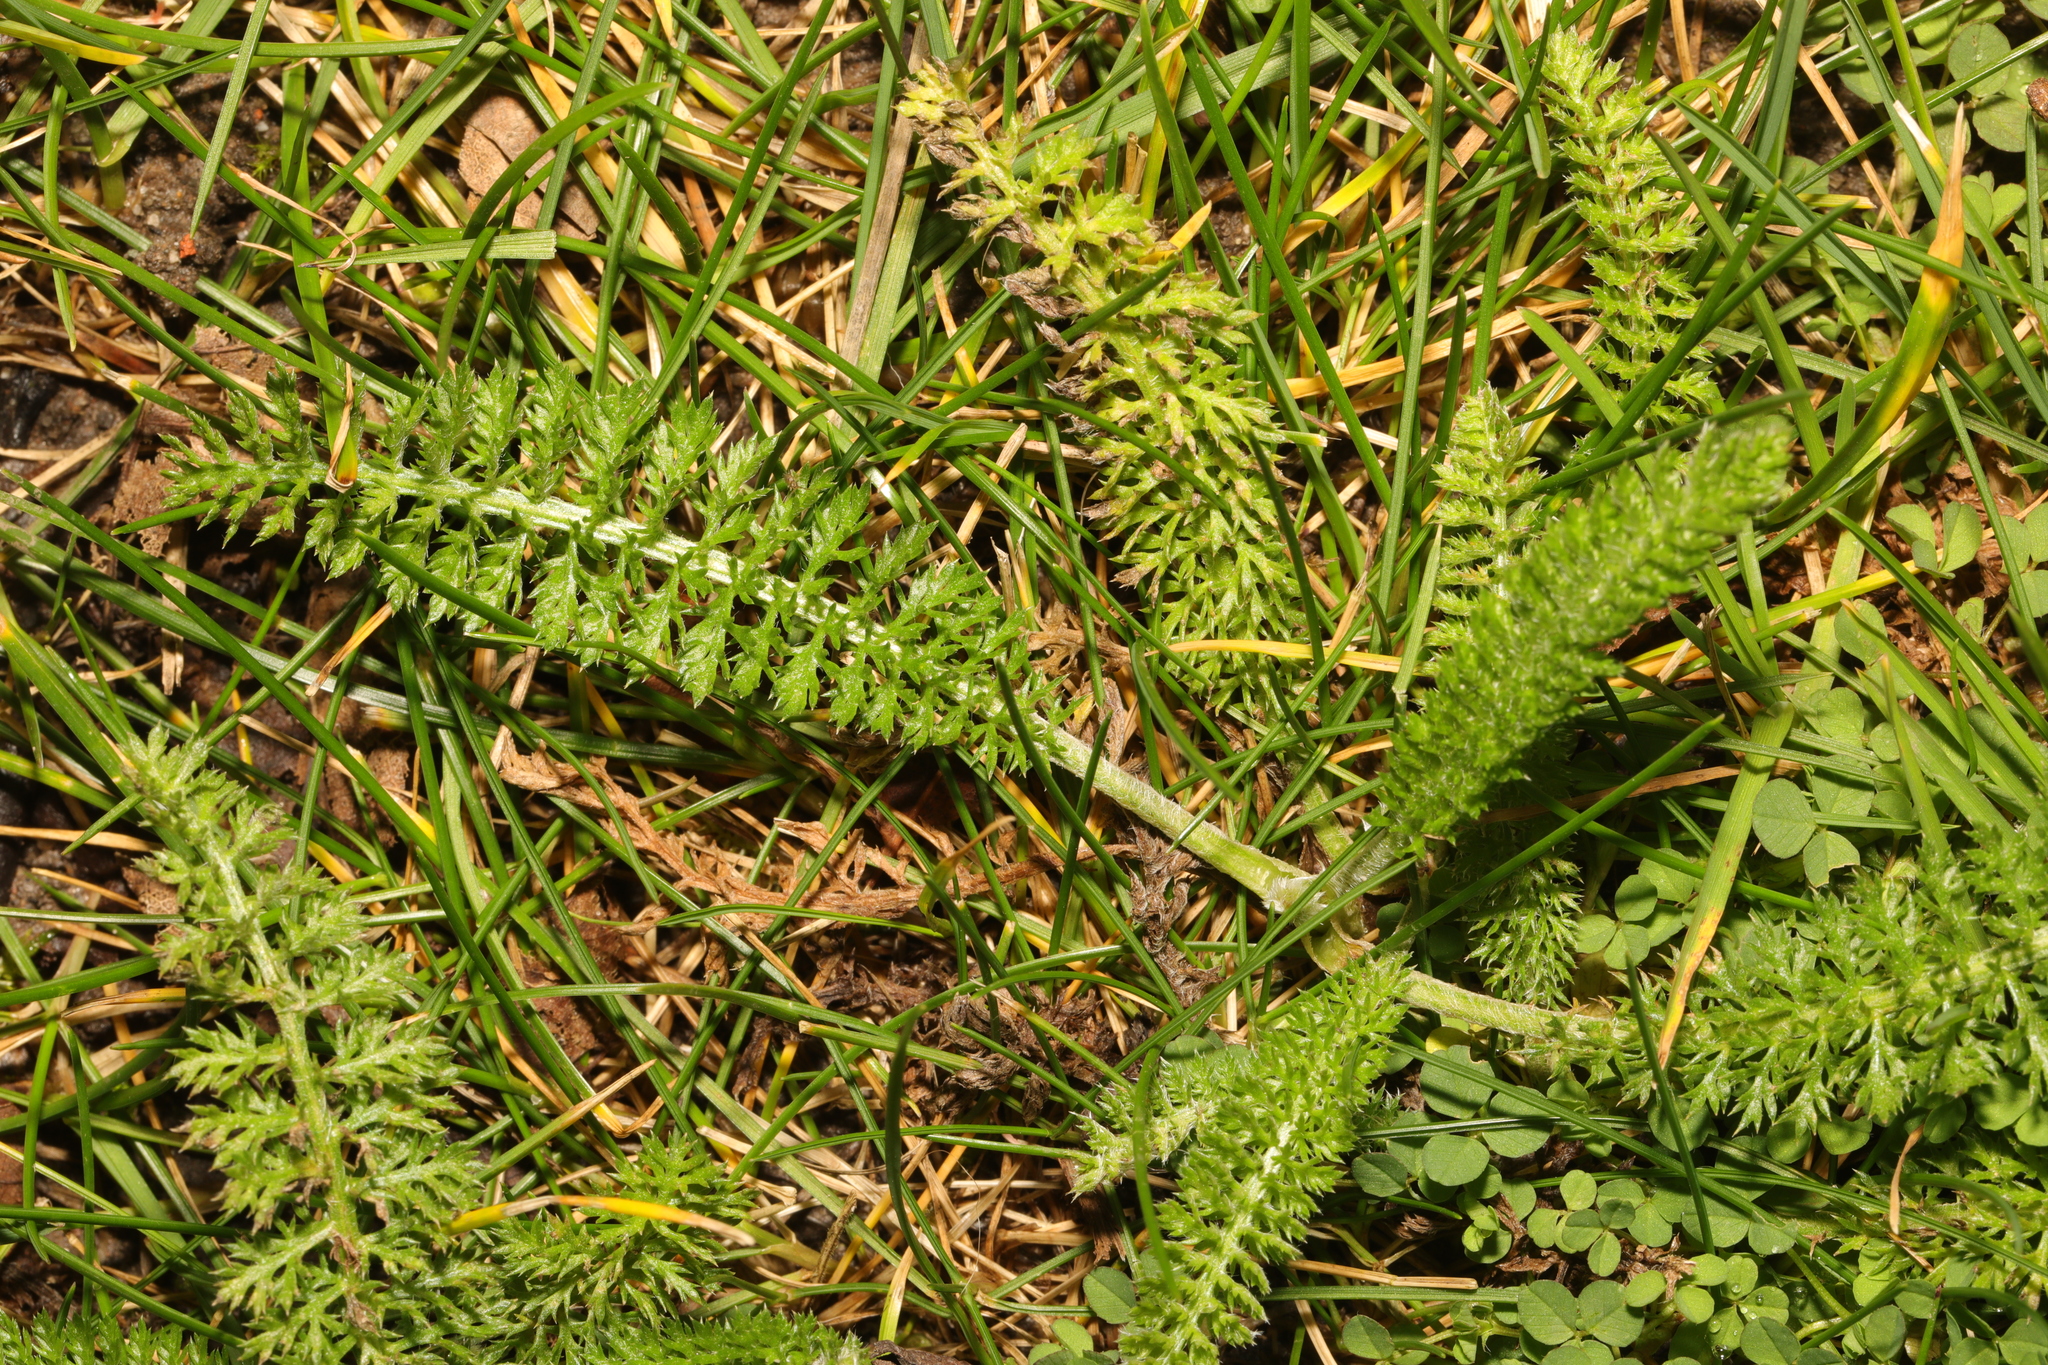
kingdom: Plantae
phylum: Tracheophyta
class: Magnoliopsida
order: Asterales
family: Asteraceae
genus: Achillea
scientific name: Achillea millefolium
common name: Yarrow
